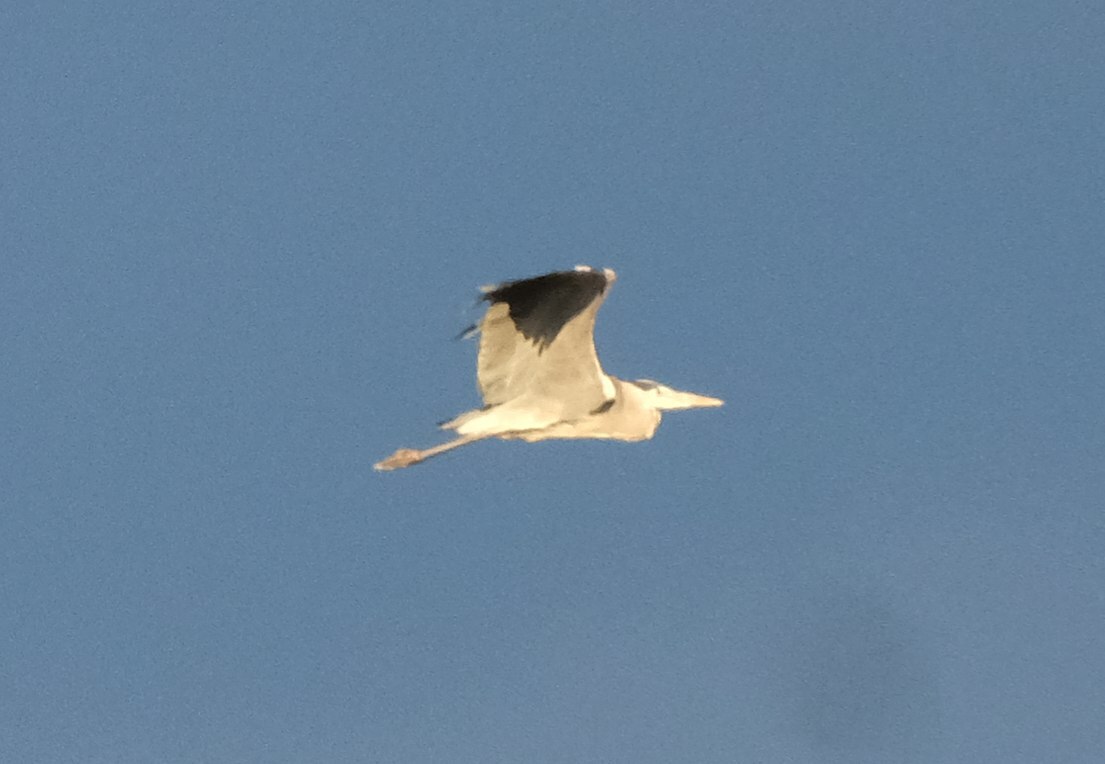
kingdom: Animalia
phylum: Chordata
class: Aves
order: Pelecaniformes
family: Ardeidae
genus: Ardea
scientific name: Ardea cinerea
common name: Grey heron
